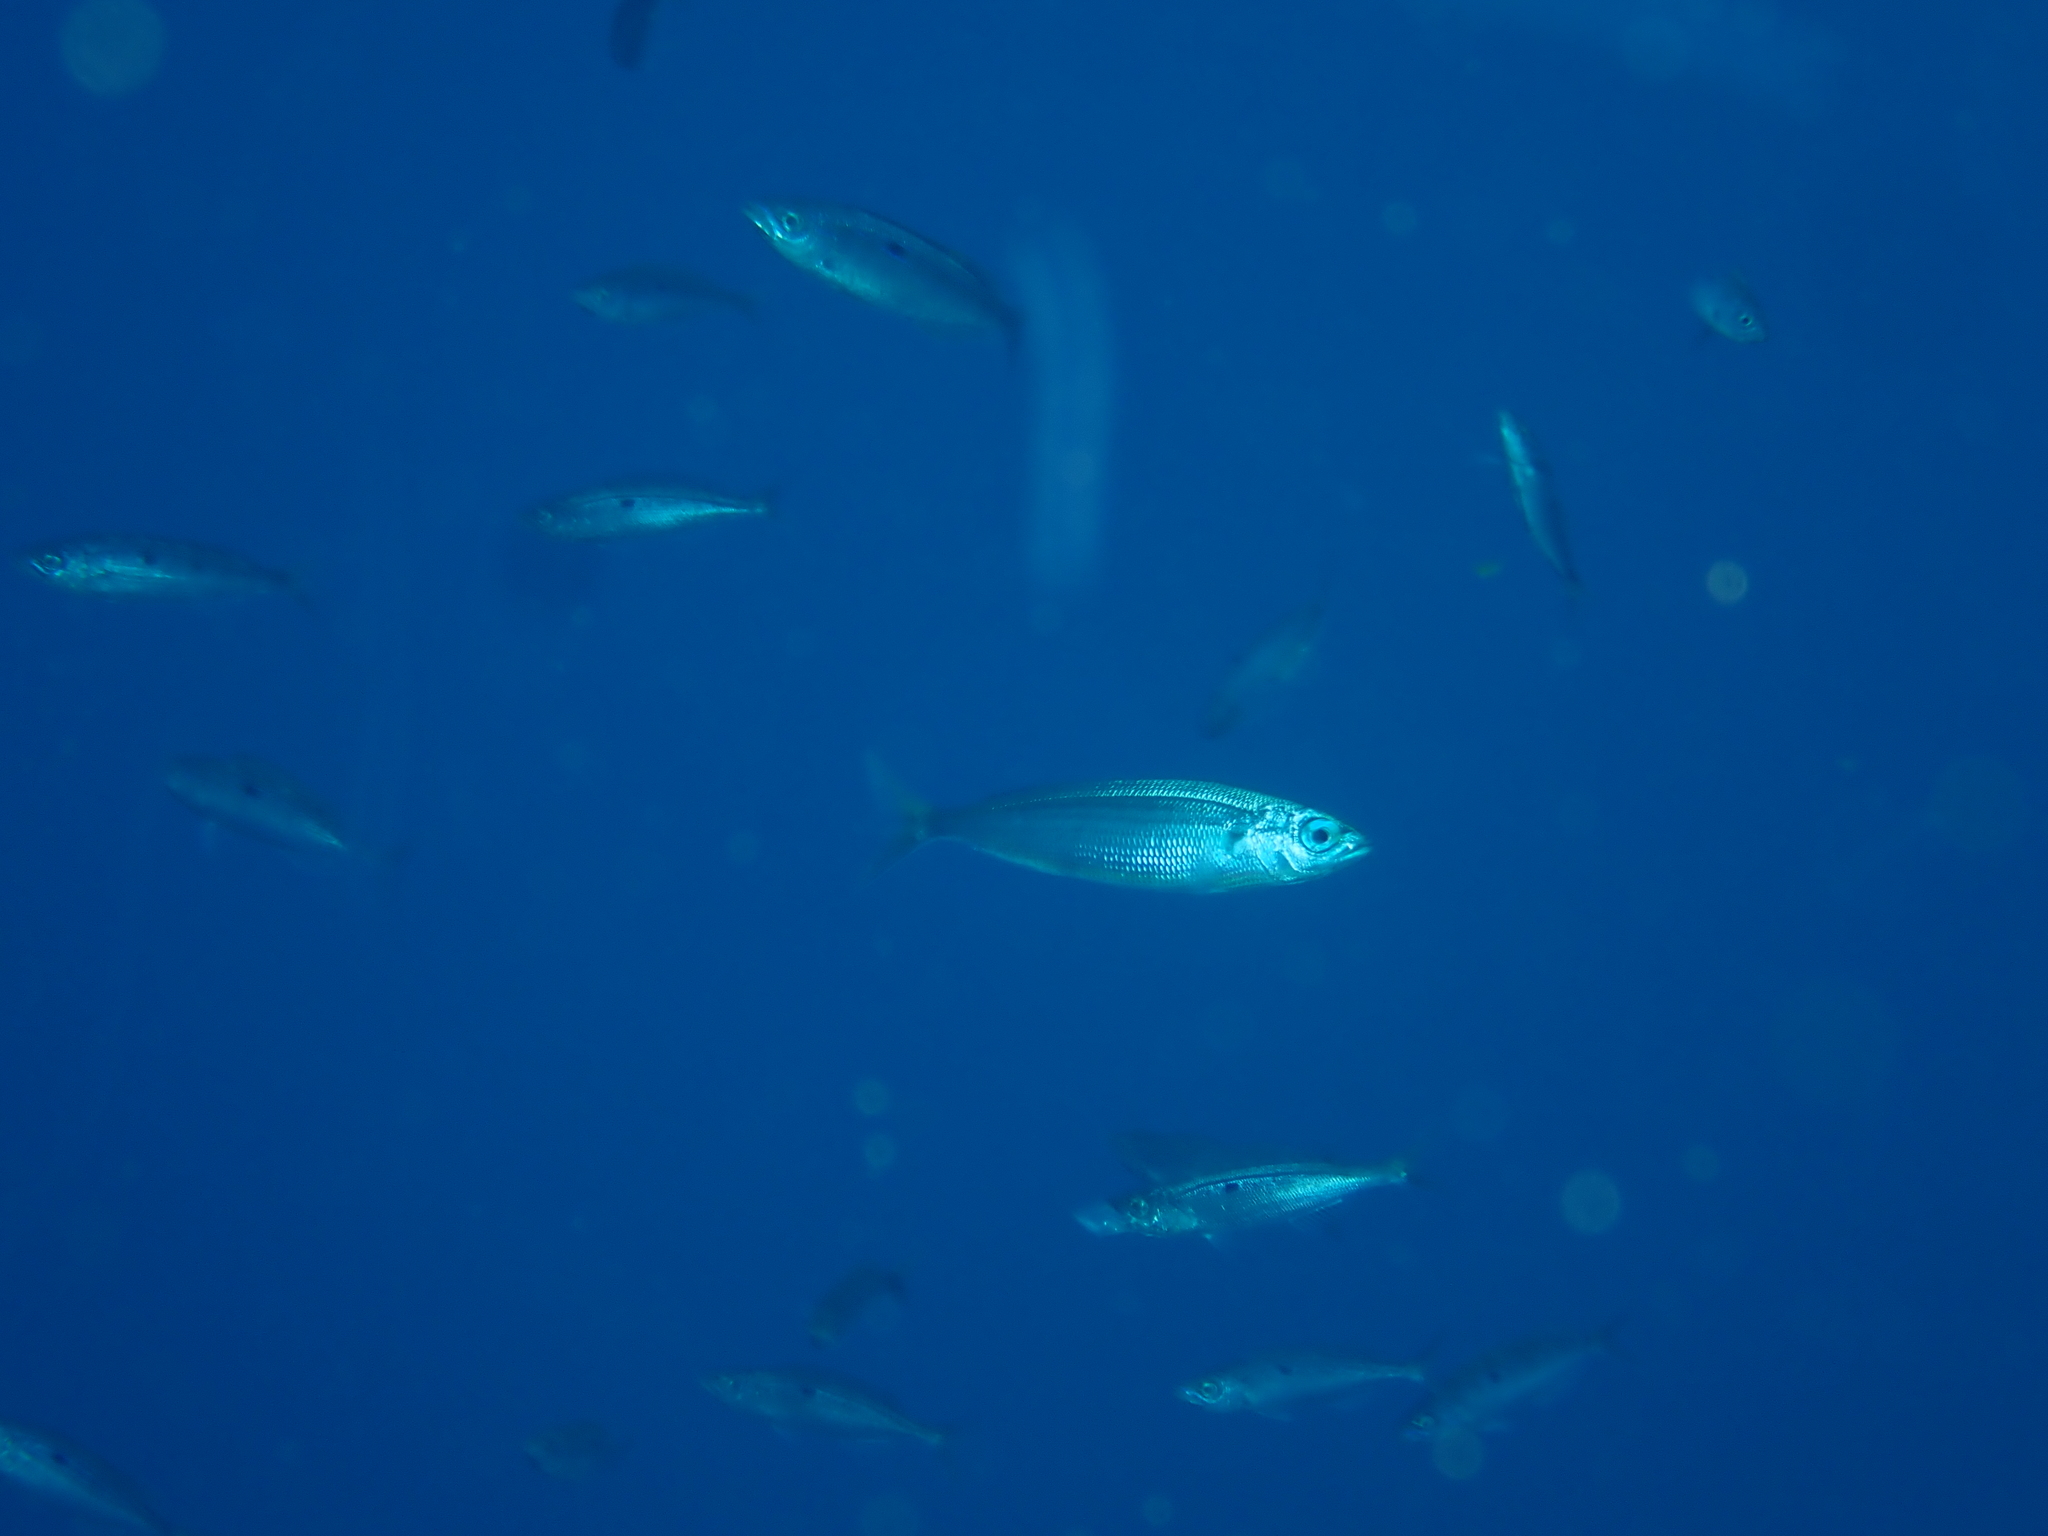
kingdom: Animalia
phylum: Chordata
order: Perciformes
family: Sparidae
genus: Boops
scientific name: Boops boops
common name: Bogue
